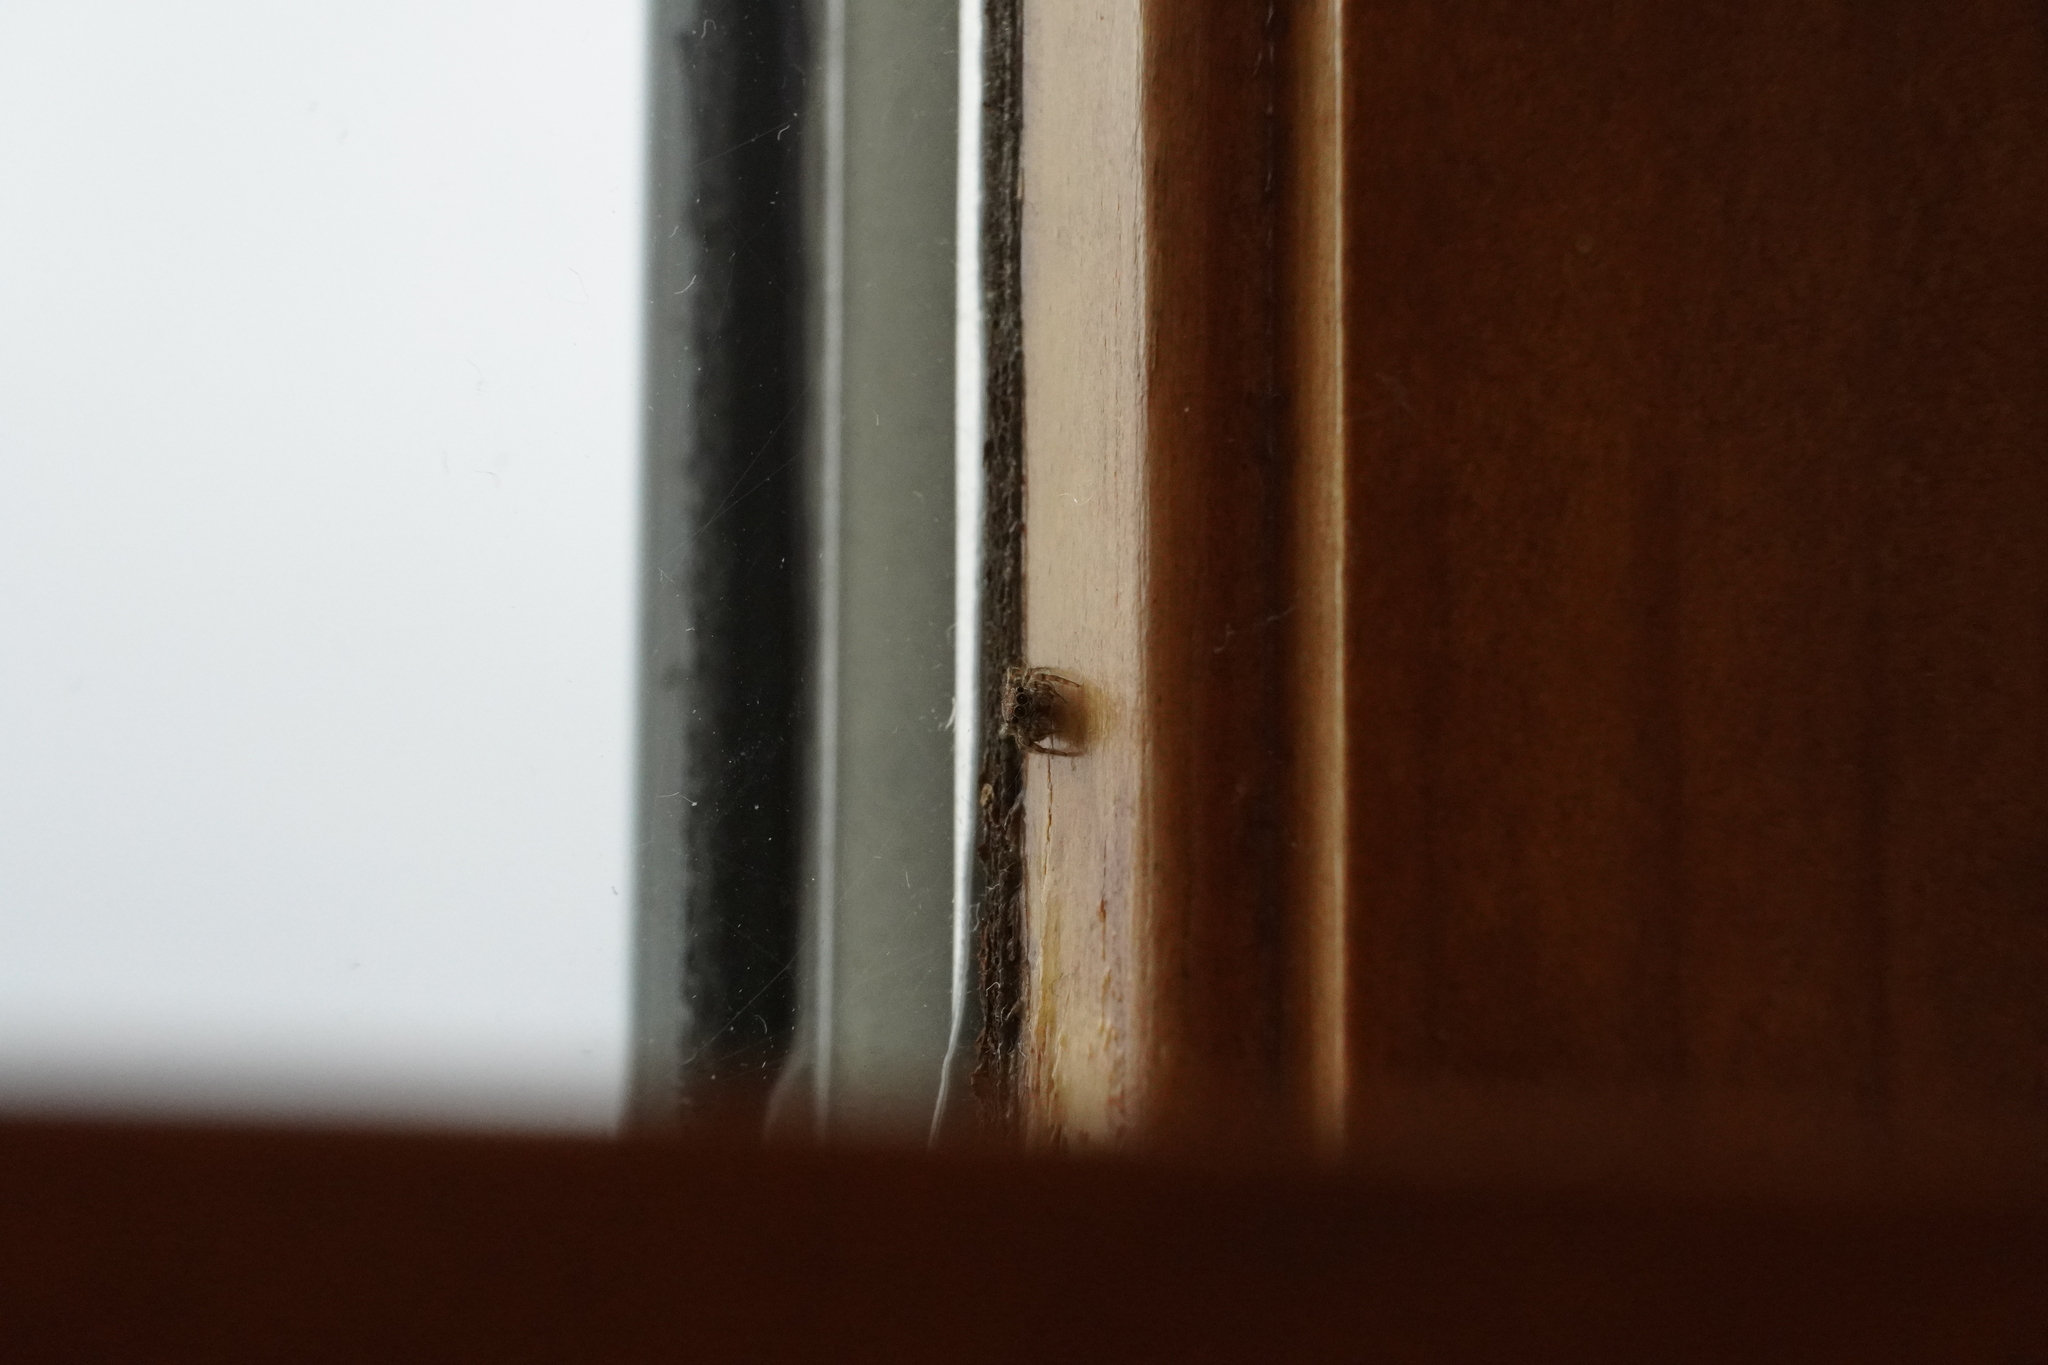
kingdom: Animalia
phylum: Arthropoda
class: Arachnida
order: Araneae
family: Salticidae
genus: Attulus
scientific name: Attulus fasciger
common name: Asiatic wall jumping spider
